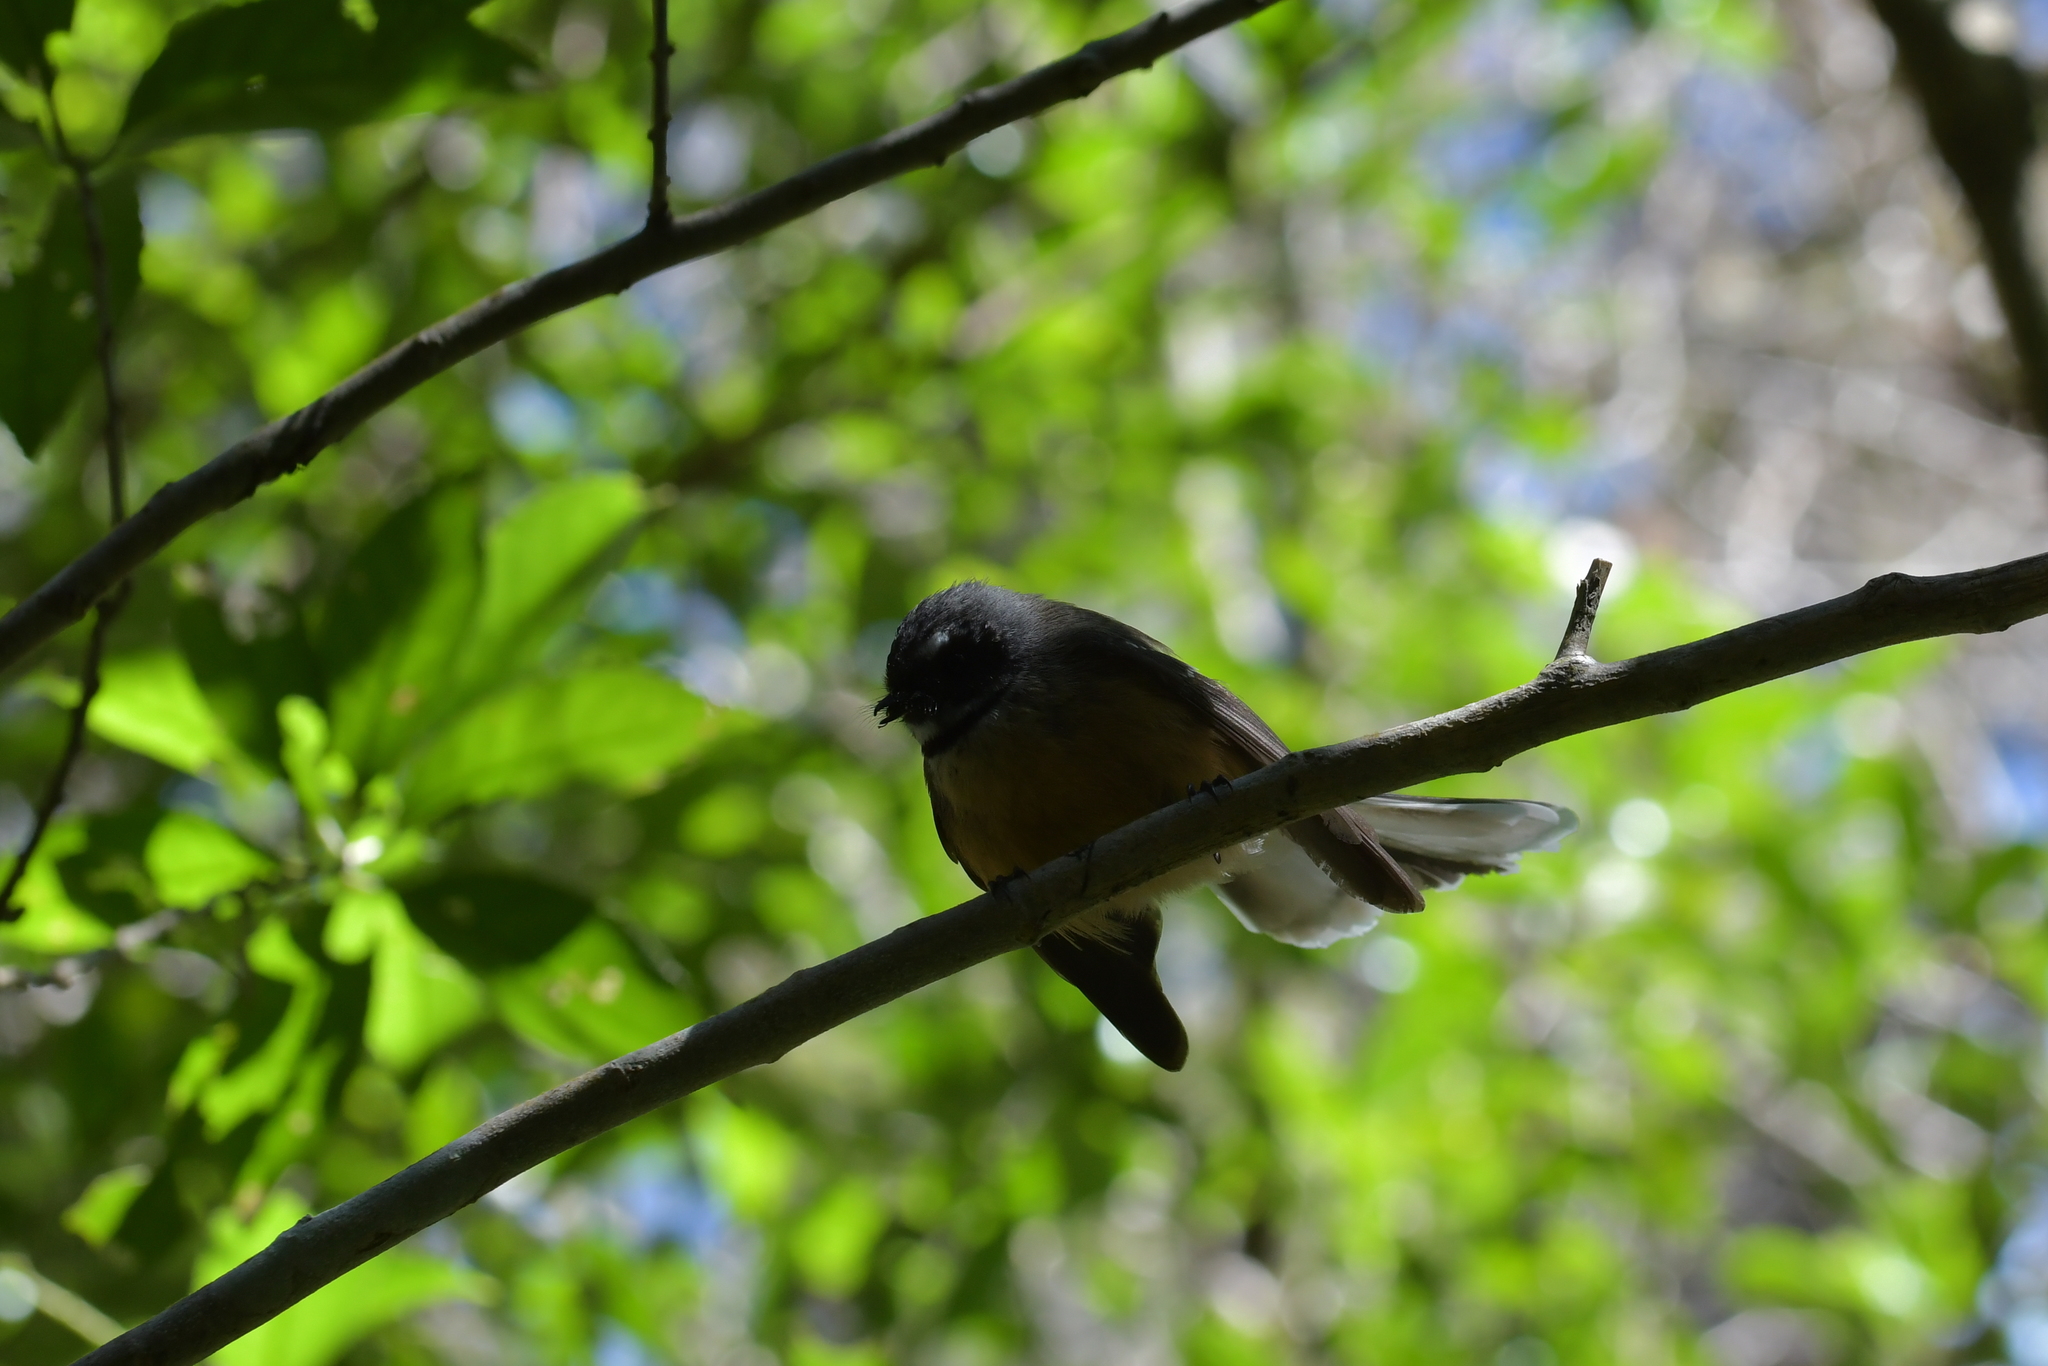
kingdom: Animalia
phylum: Chordata
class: Aves
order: Passeriformes
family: Rhipiduridae
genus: Rhipidura
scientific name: Rhipidura fuliginosa
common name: New zealand fantail
